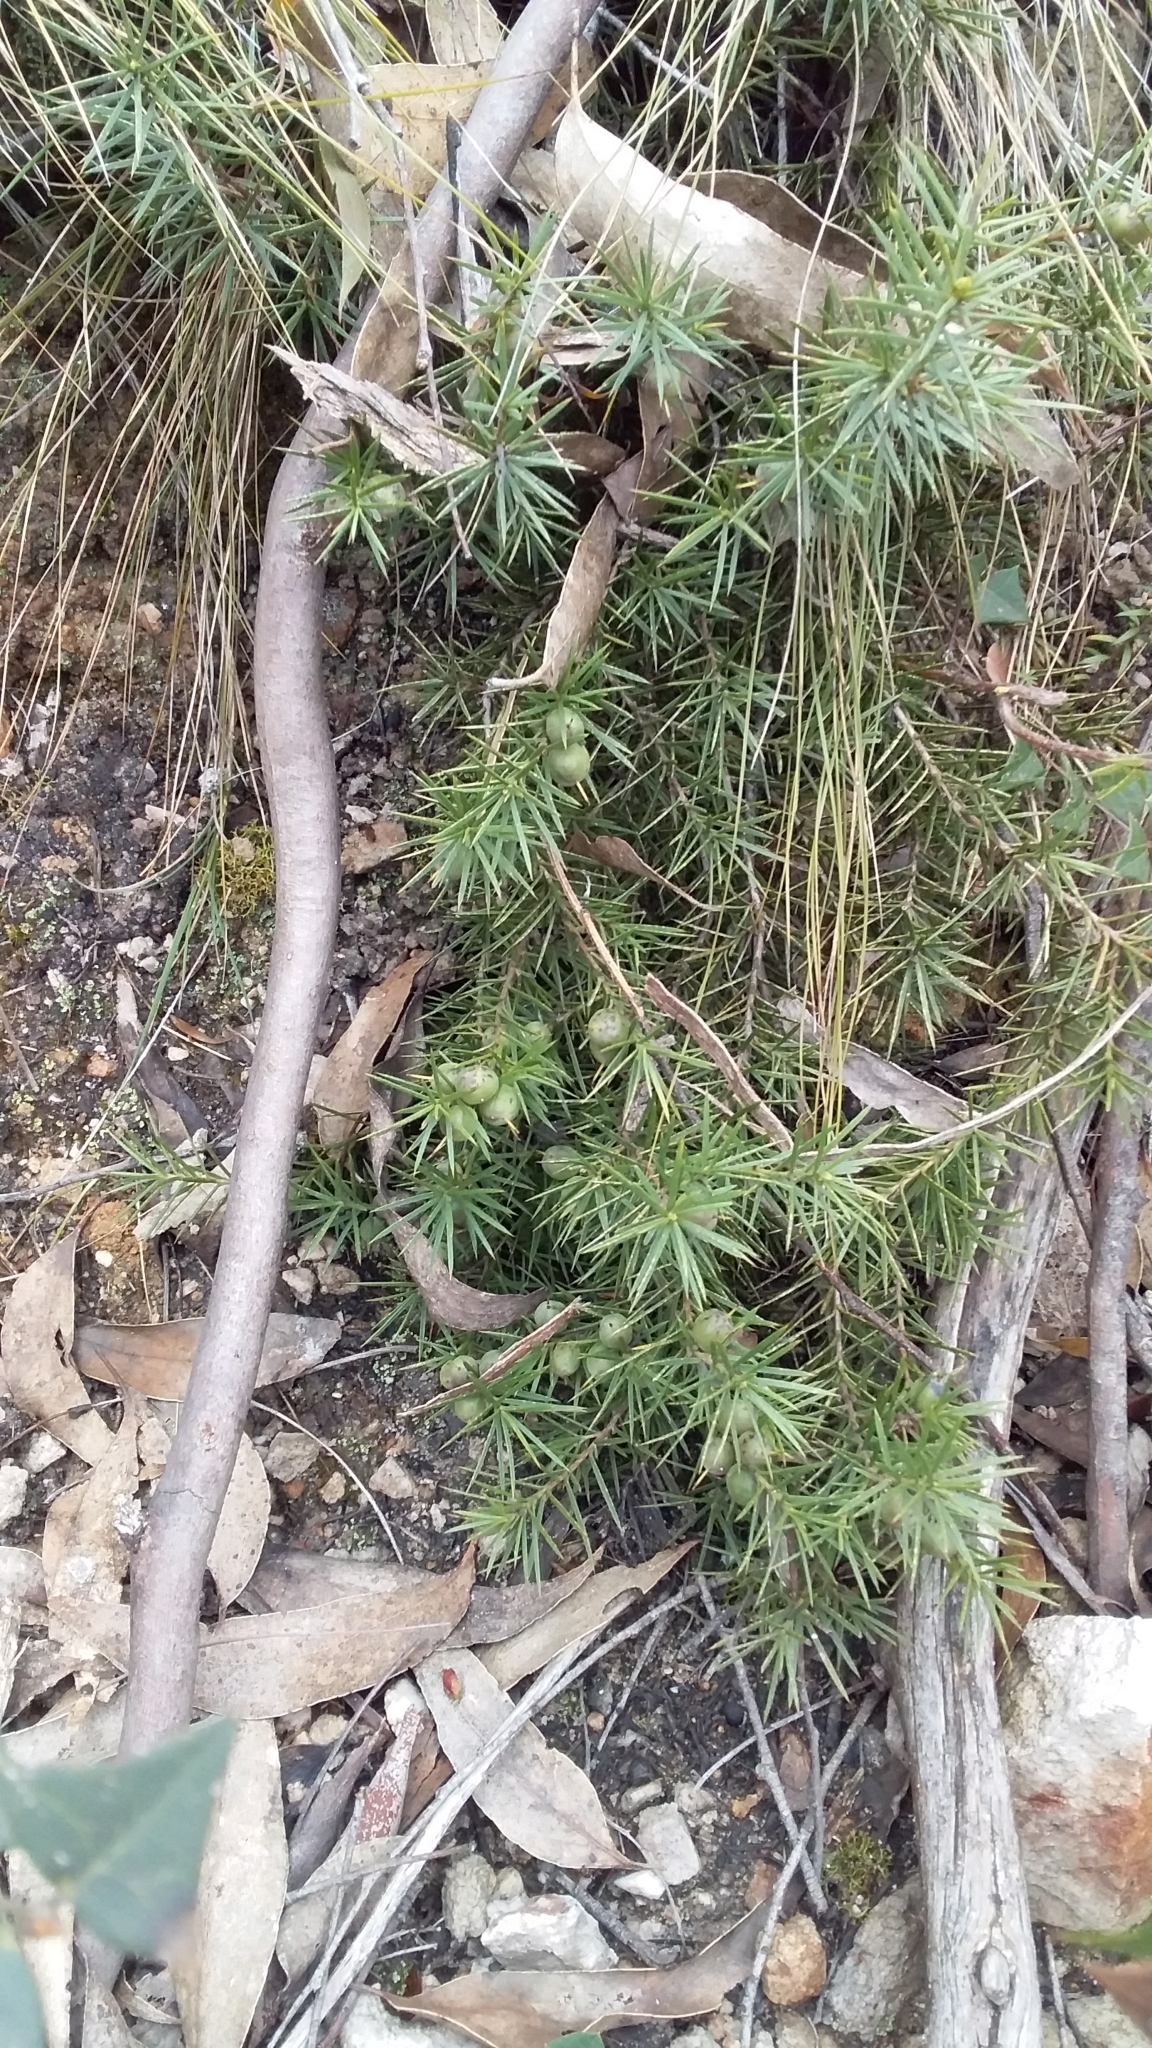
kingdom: Plantae
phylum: Tracheophyta
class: Magnoliopsida
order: Proteales
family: Proteaceae
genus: Persoonia
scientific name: Persoonia juniperina
